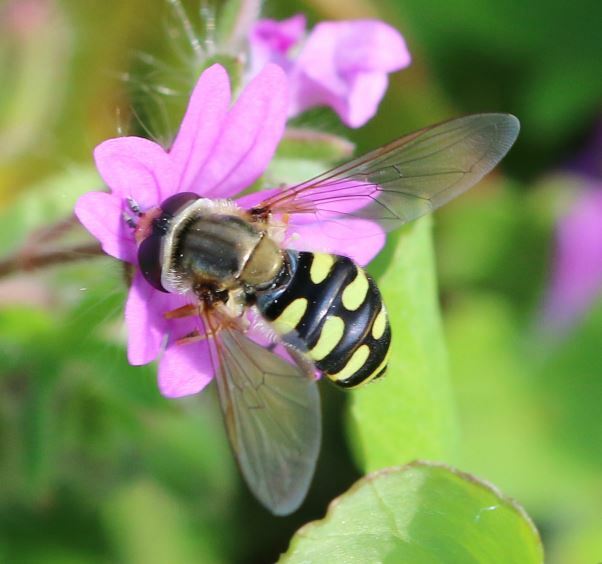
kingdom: Animalia
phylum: Arthropoda
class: Insecta
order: Diptera
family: Syrphidae
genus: Eupeodes
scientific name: Eupeodes corollae
